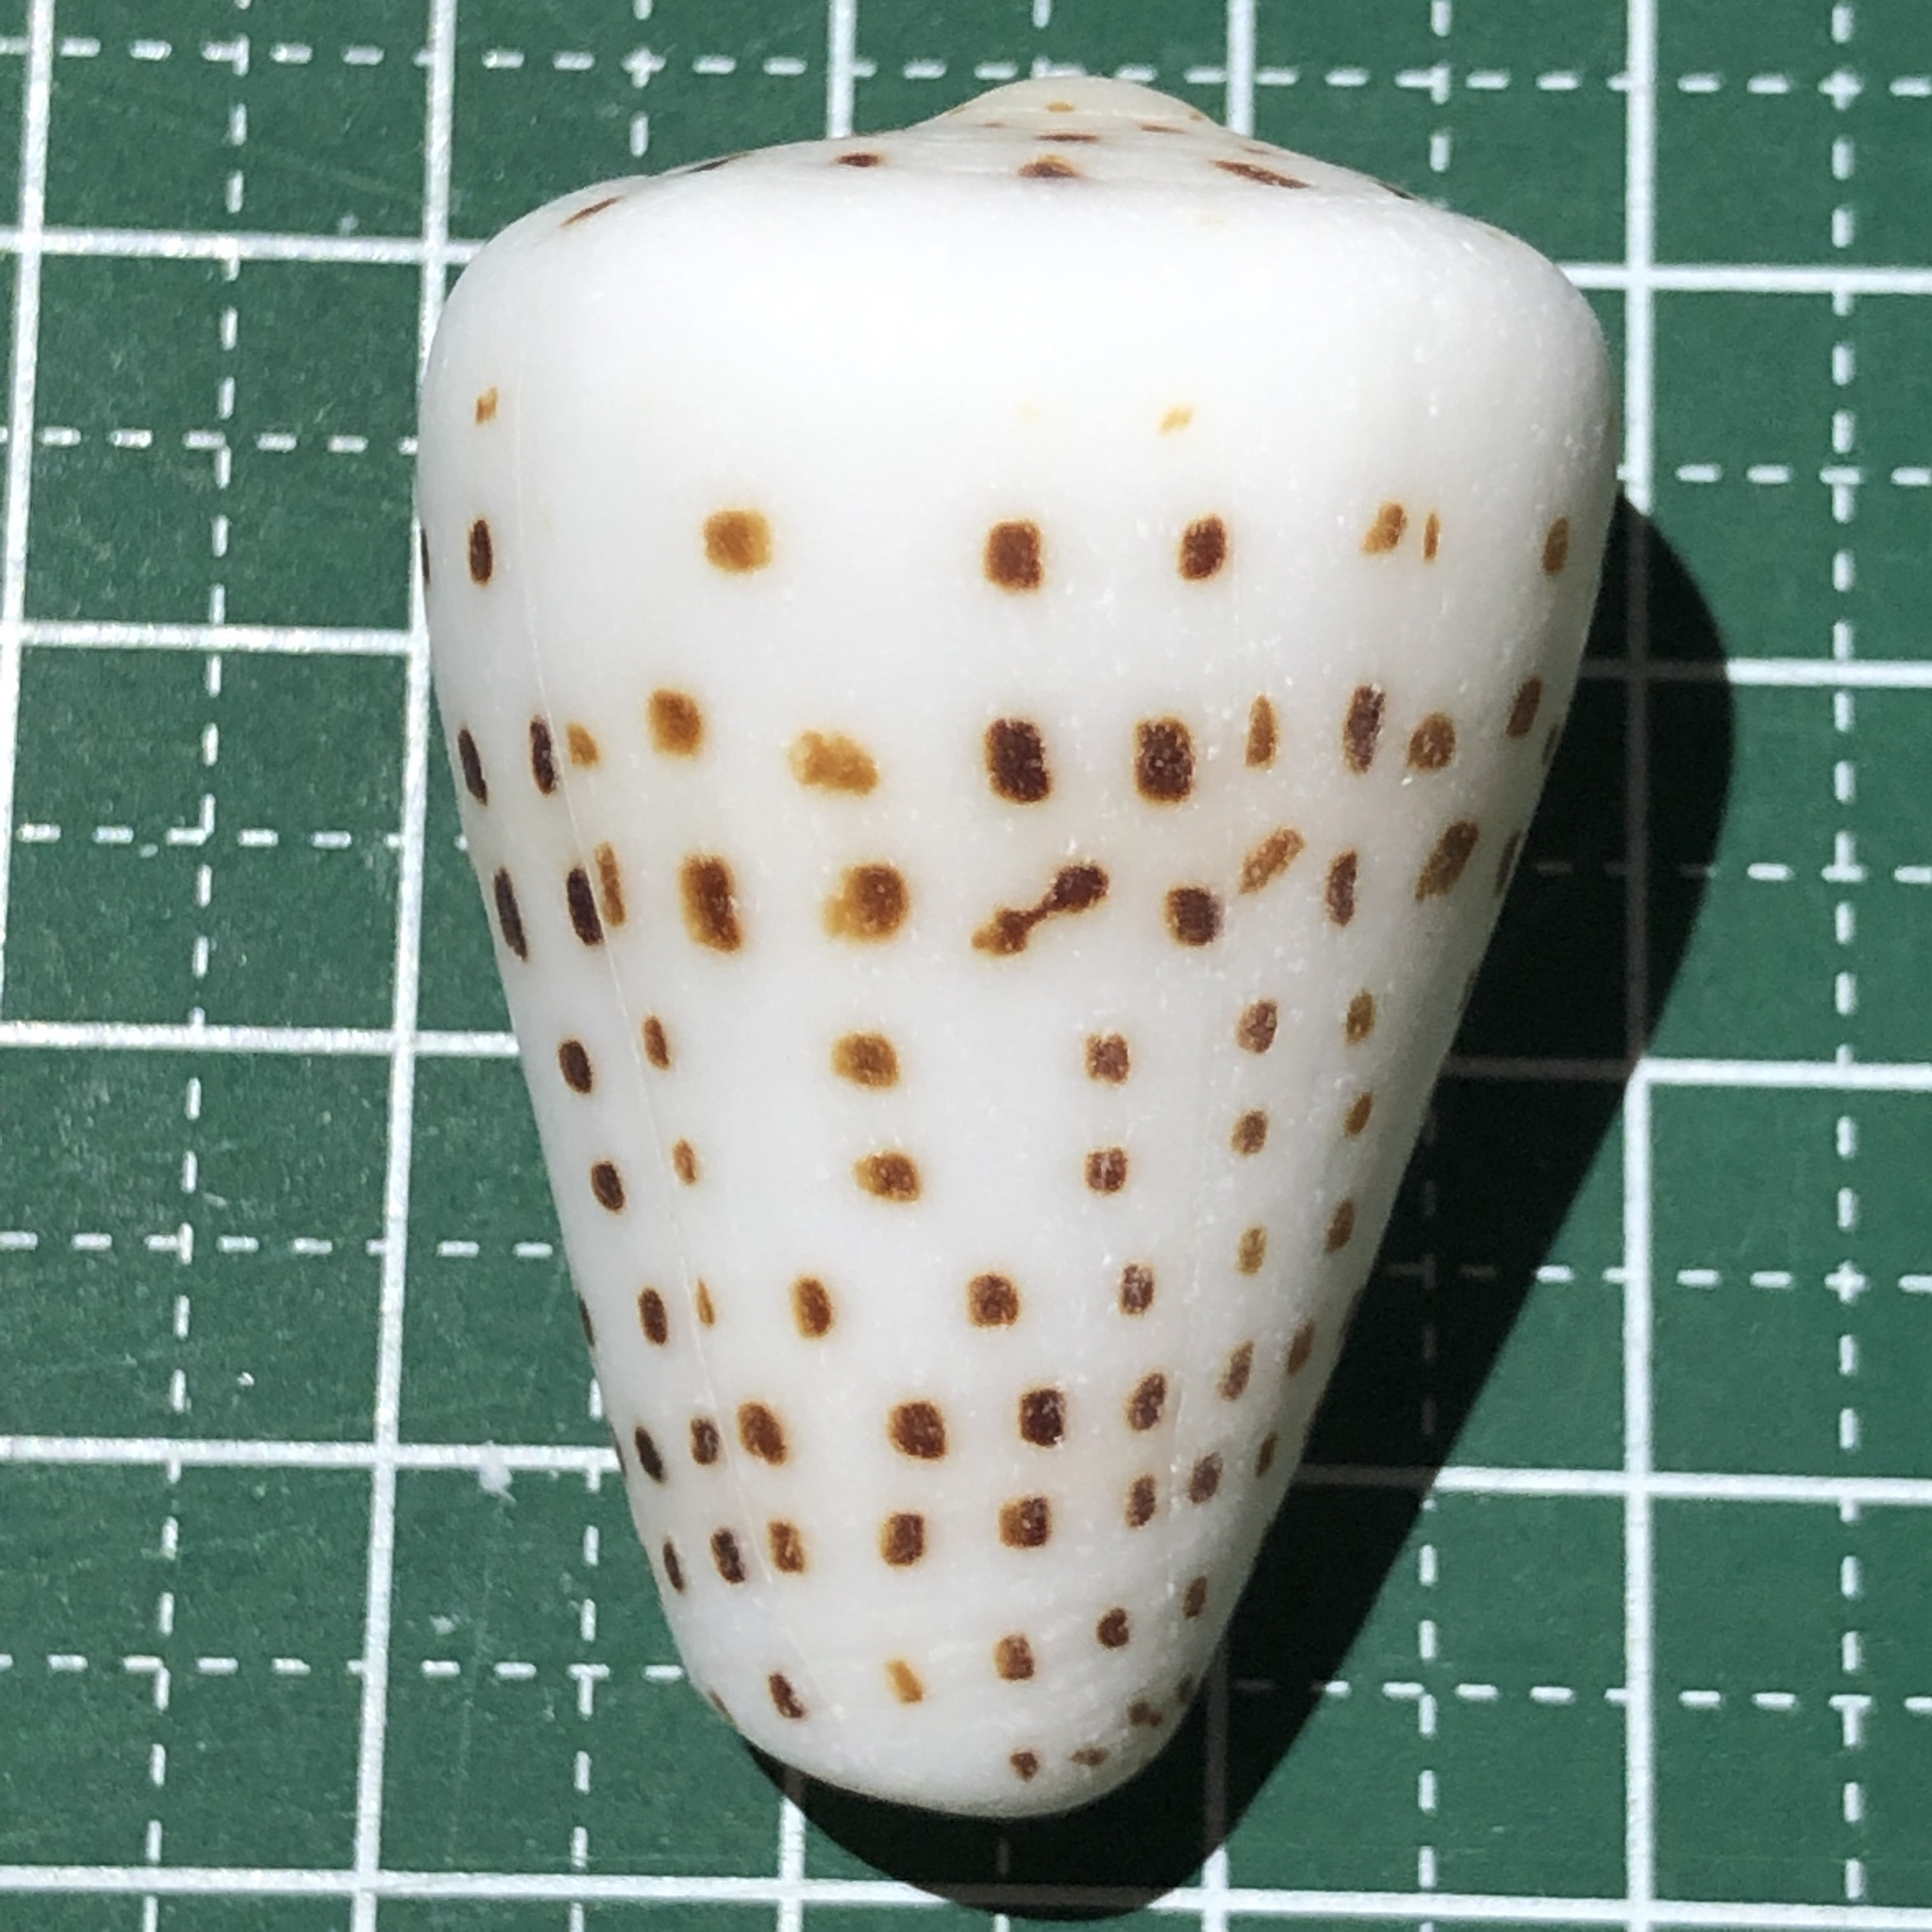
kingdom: Animalia
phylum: Mollusca
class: Gastropoda
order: Neogastropoda
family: Conidae
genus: Conus
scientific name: Conus eburneus
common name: Ivory cone
